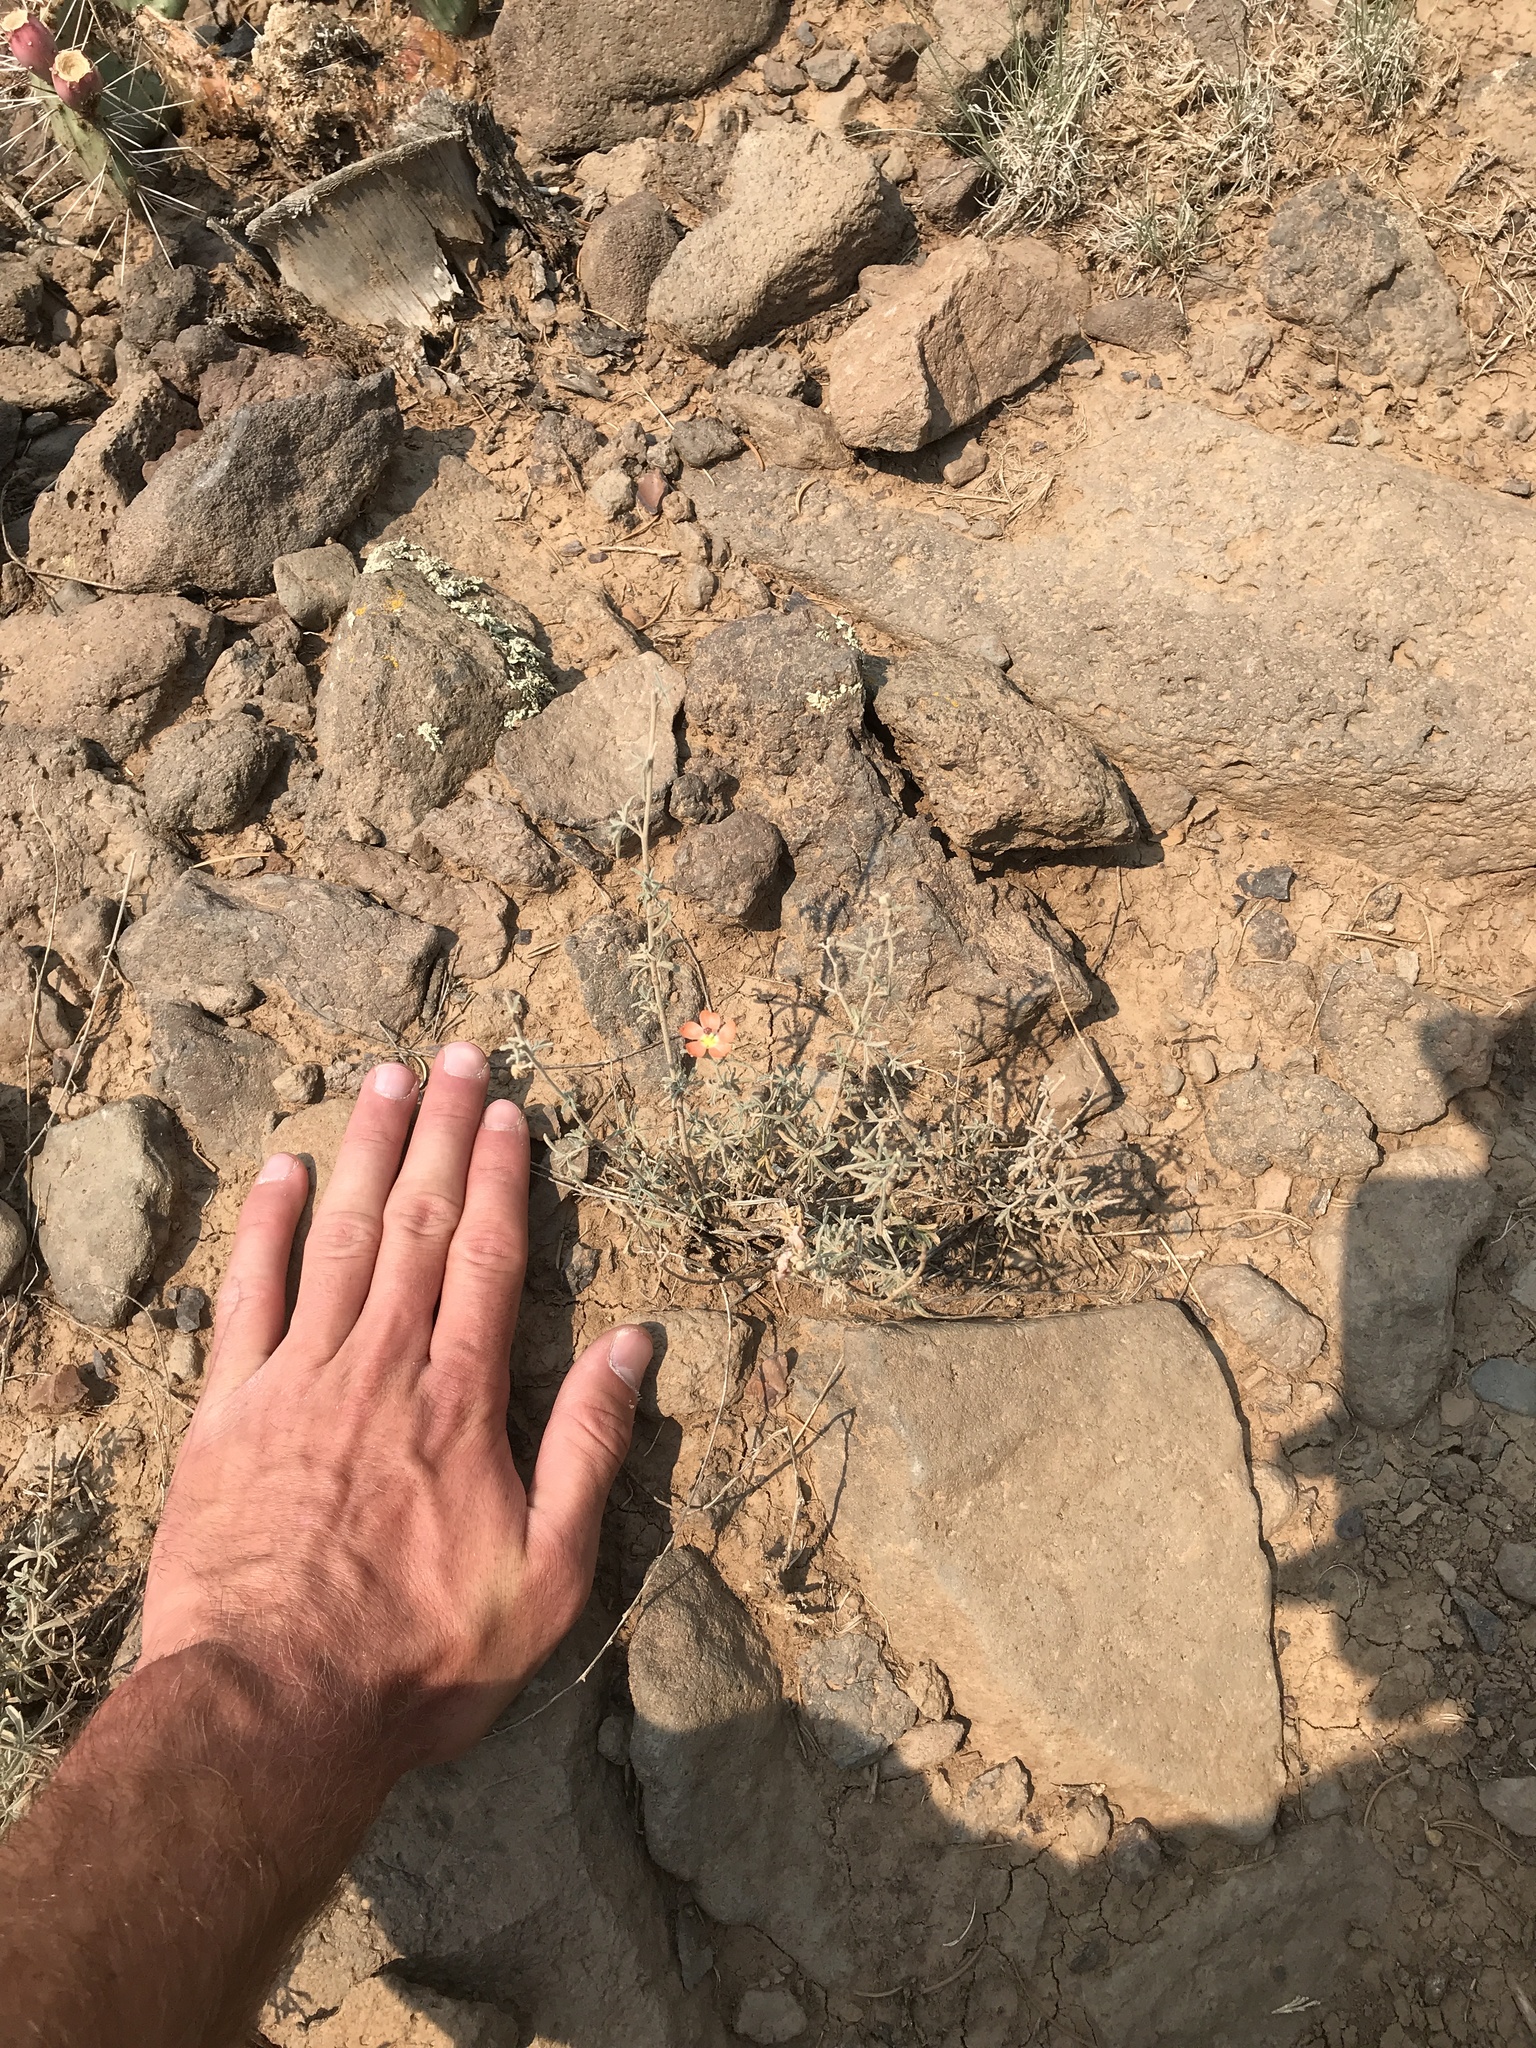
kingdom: Plantae
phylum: Tracheophyta
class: Magnoliopsida
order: Malvales
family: Malvaceae
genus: Sphaeralcea
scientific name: Sphaeralcea coccinea
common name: Moss-rose
